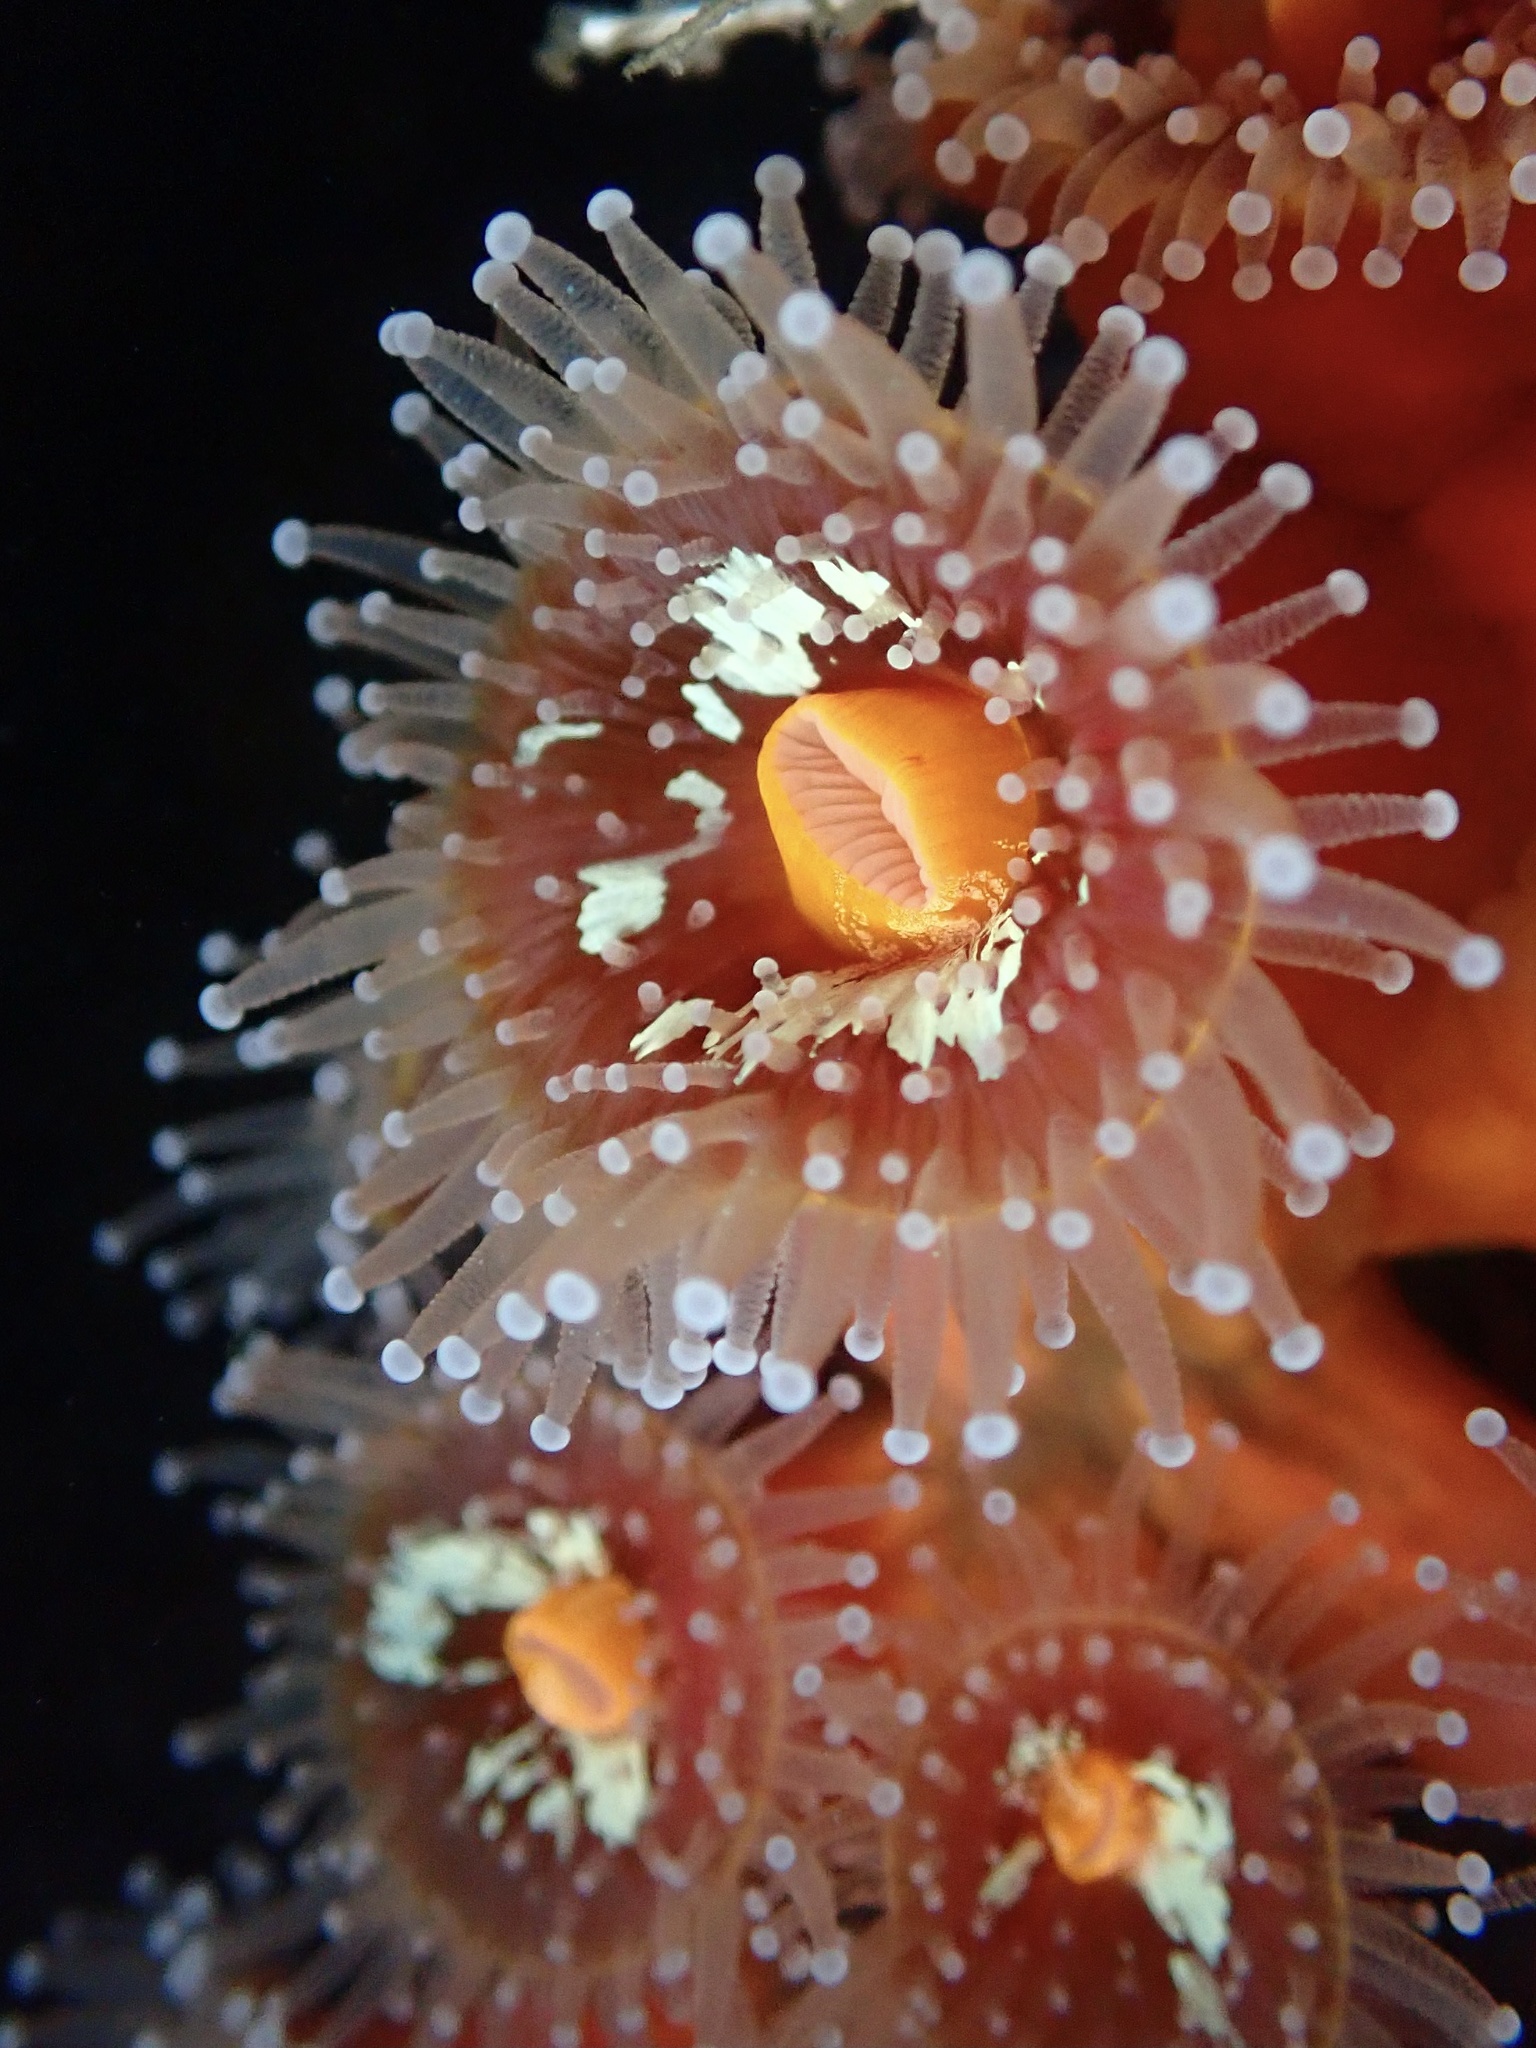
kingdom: Animalia
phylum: Cnidaria
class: Anthozoa
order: Corallimorpharia
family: Corallimorphidae
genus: Corynactis
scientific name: Corynactis californica
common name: Strawberry corallimorpharian
